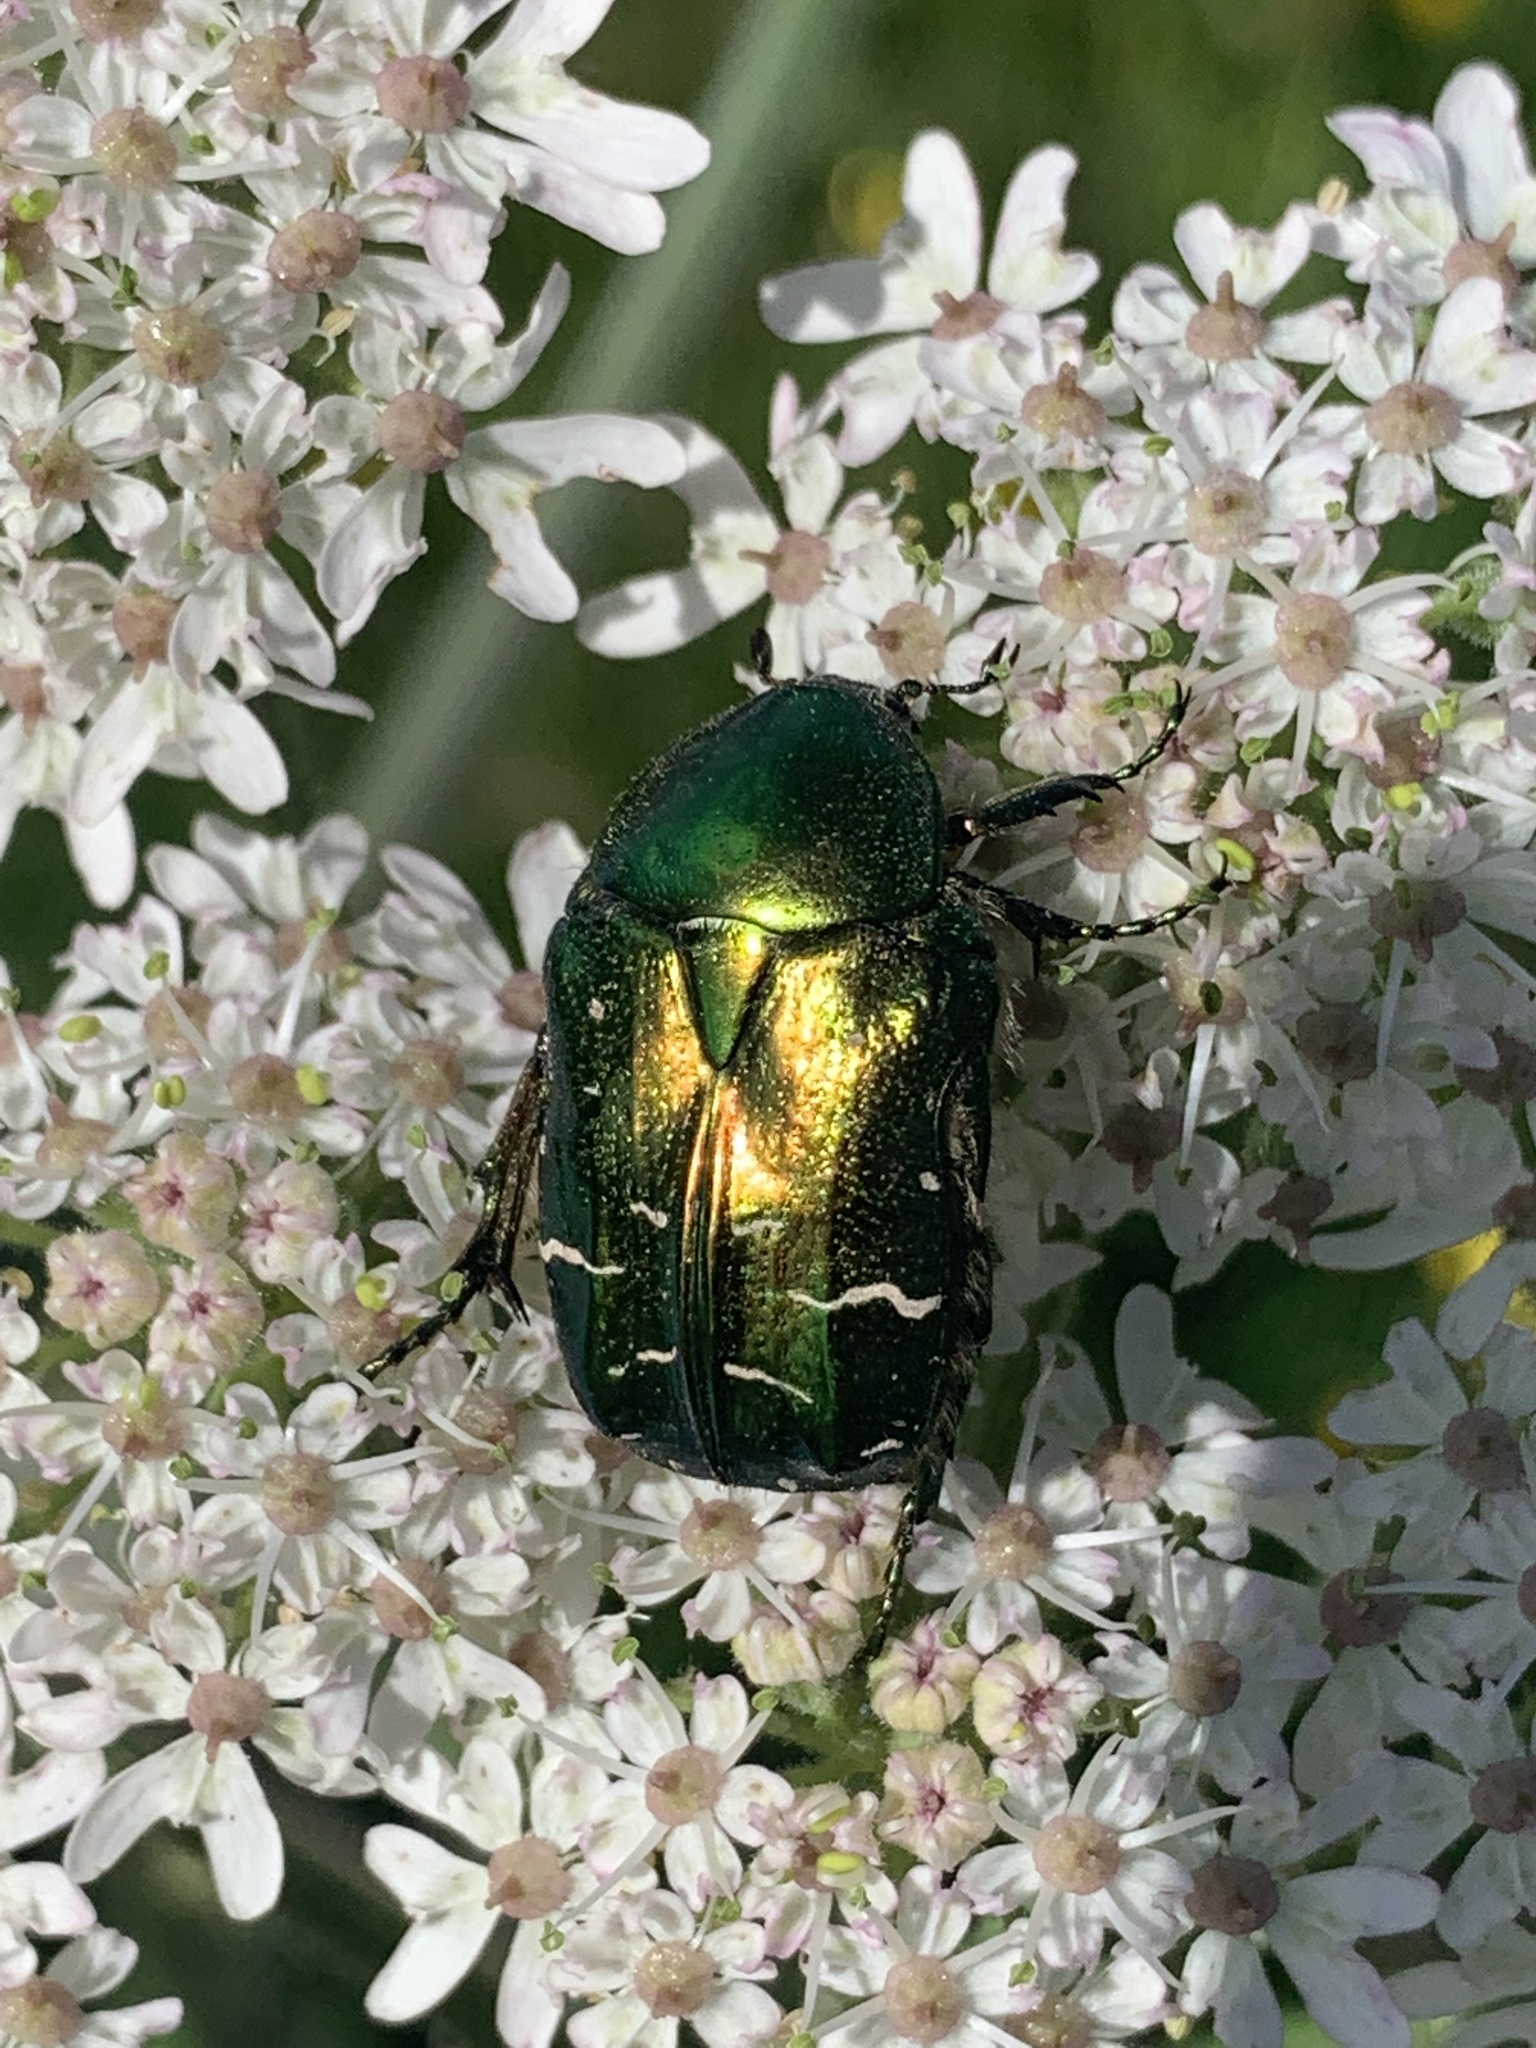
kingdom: Animalia
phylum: Arthropoda
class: Insecta
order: Coleoptera
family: Scarabaeidae
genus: Cetonia
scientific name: Cetonia aurata
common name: Rose chafer
